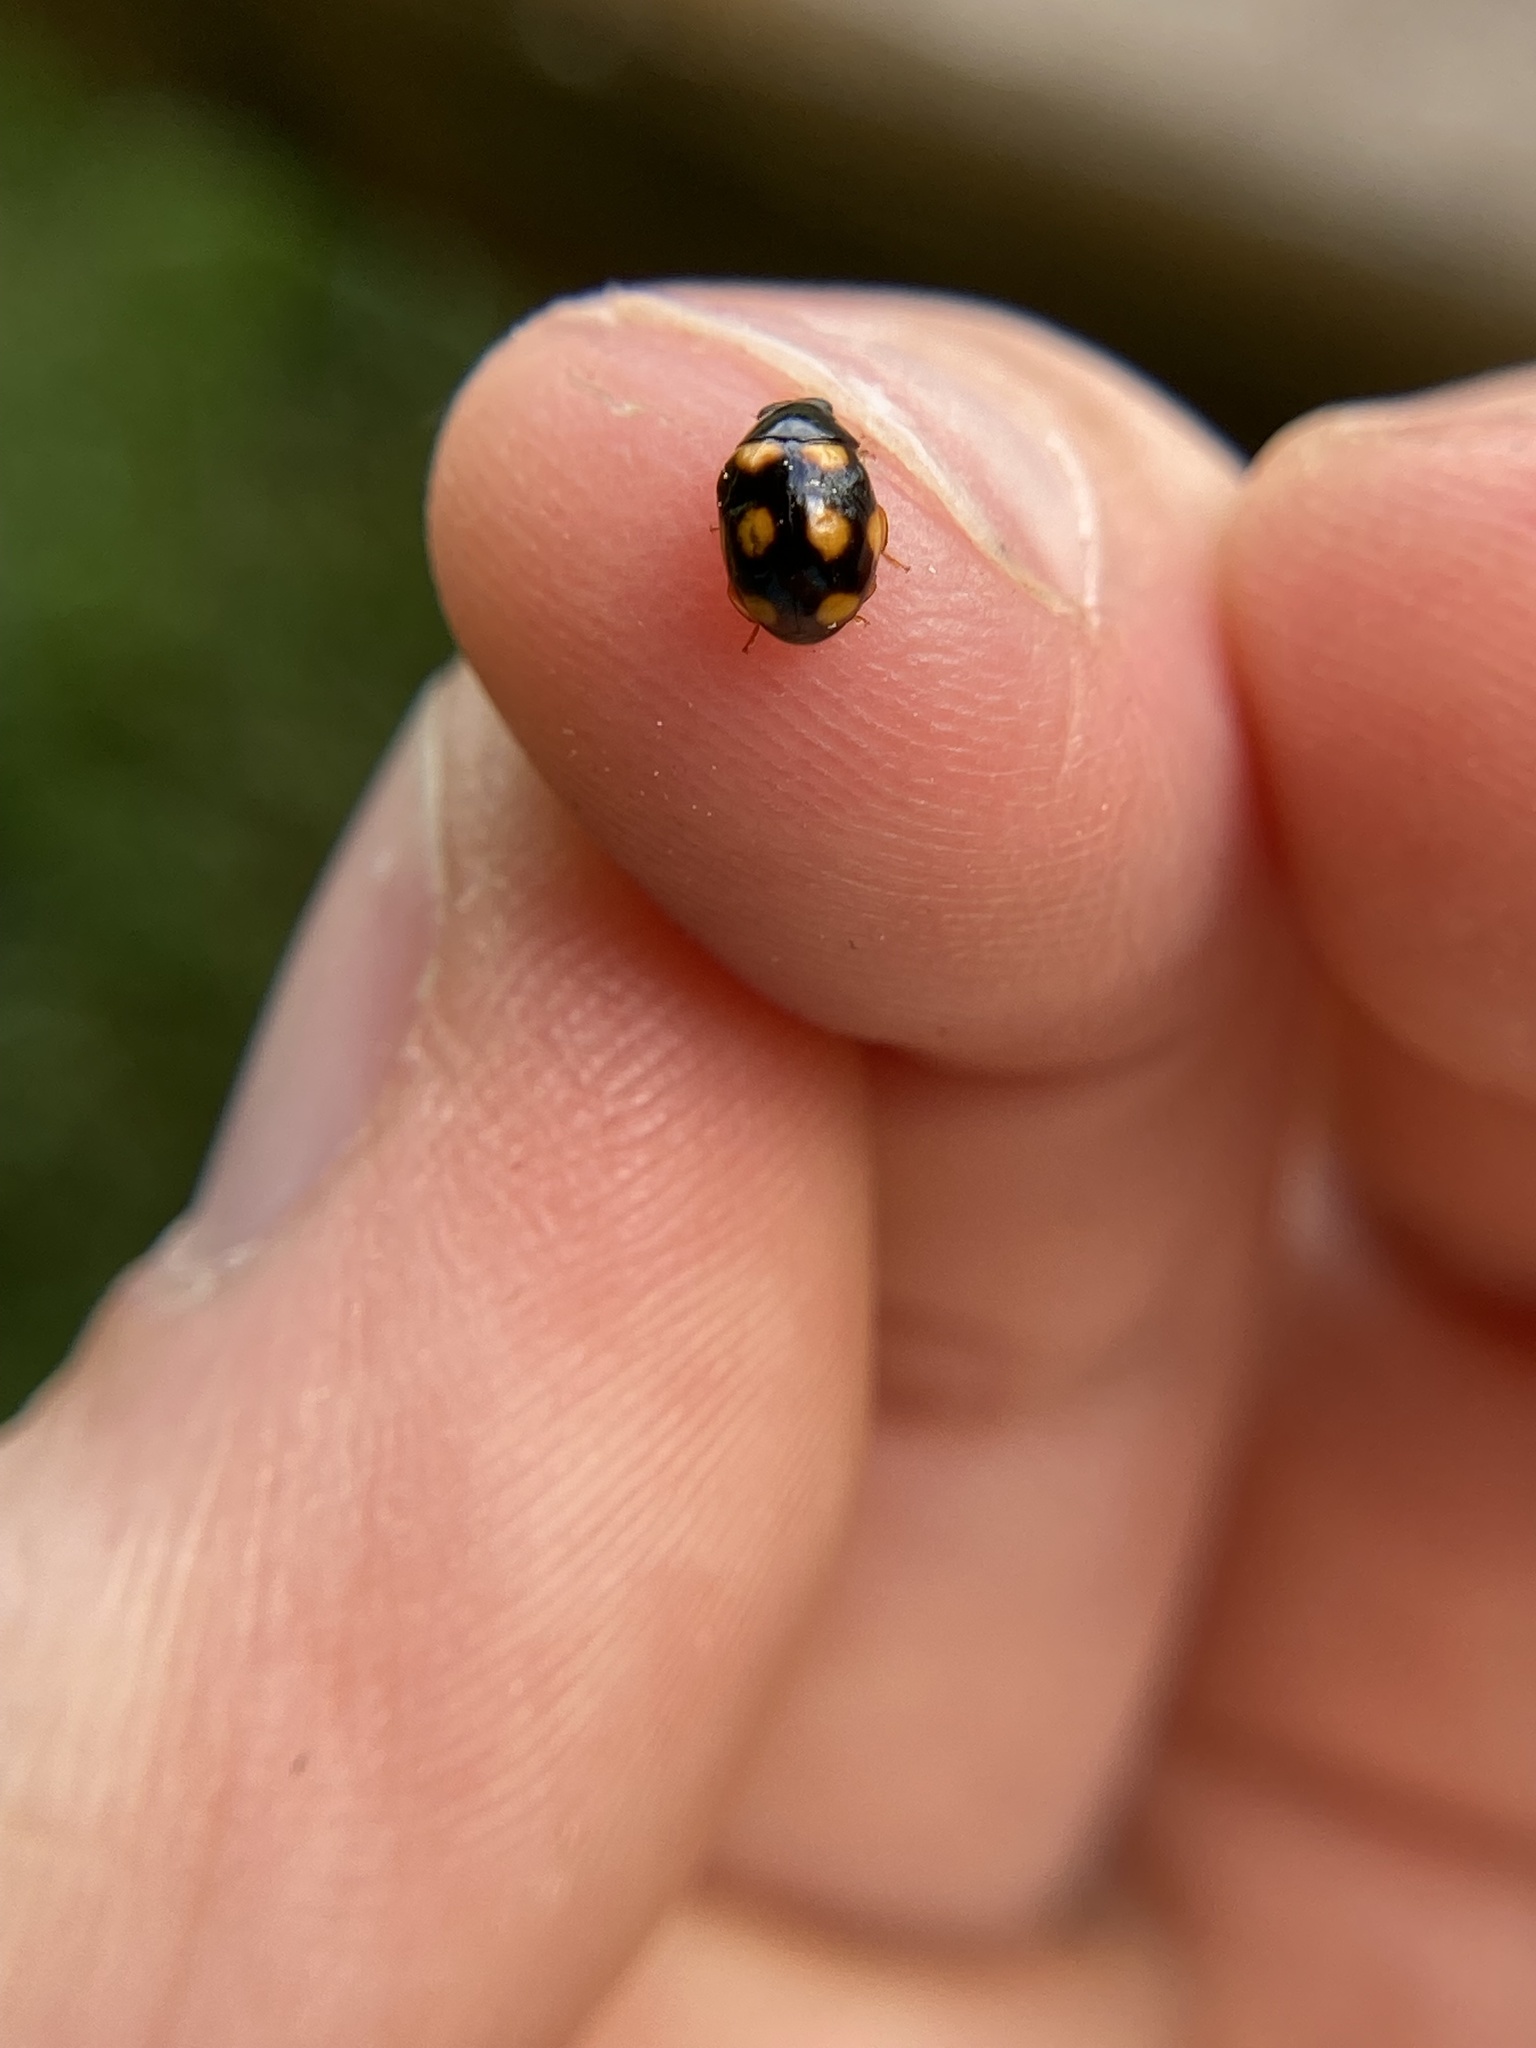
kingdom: Animalia
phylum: Arthropoda
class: Insecta
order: Coleoptera
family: Coccinellidae
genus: Brachiacantha
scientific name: Brachiacantha ursina
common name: Ursine spurleg lady beetle
